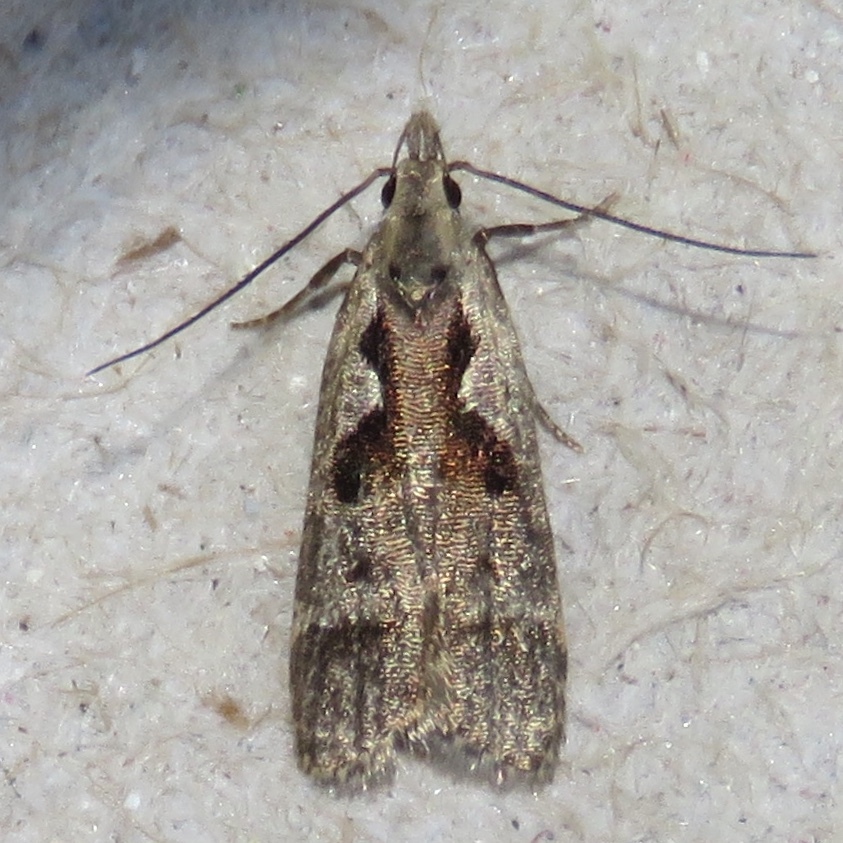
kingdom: Animalia
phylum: Arthropoda
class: Insecta
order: Lepidoptera
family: Gelechiidae
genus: Dichomeris
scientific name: Dichomeris bilobella
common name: Bilobed dichomeris moth
